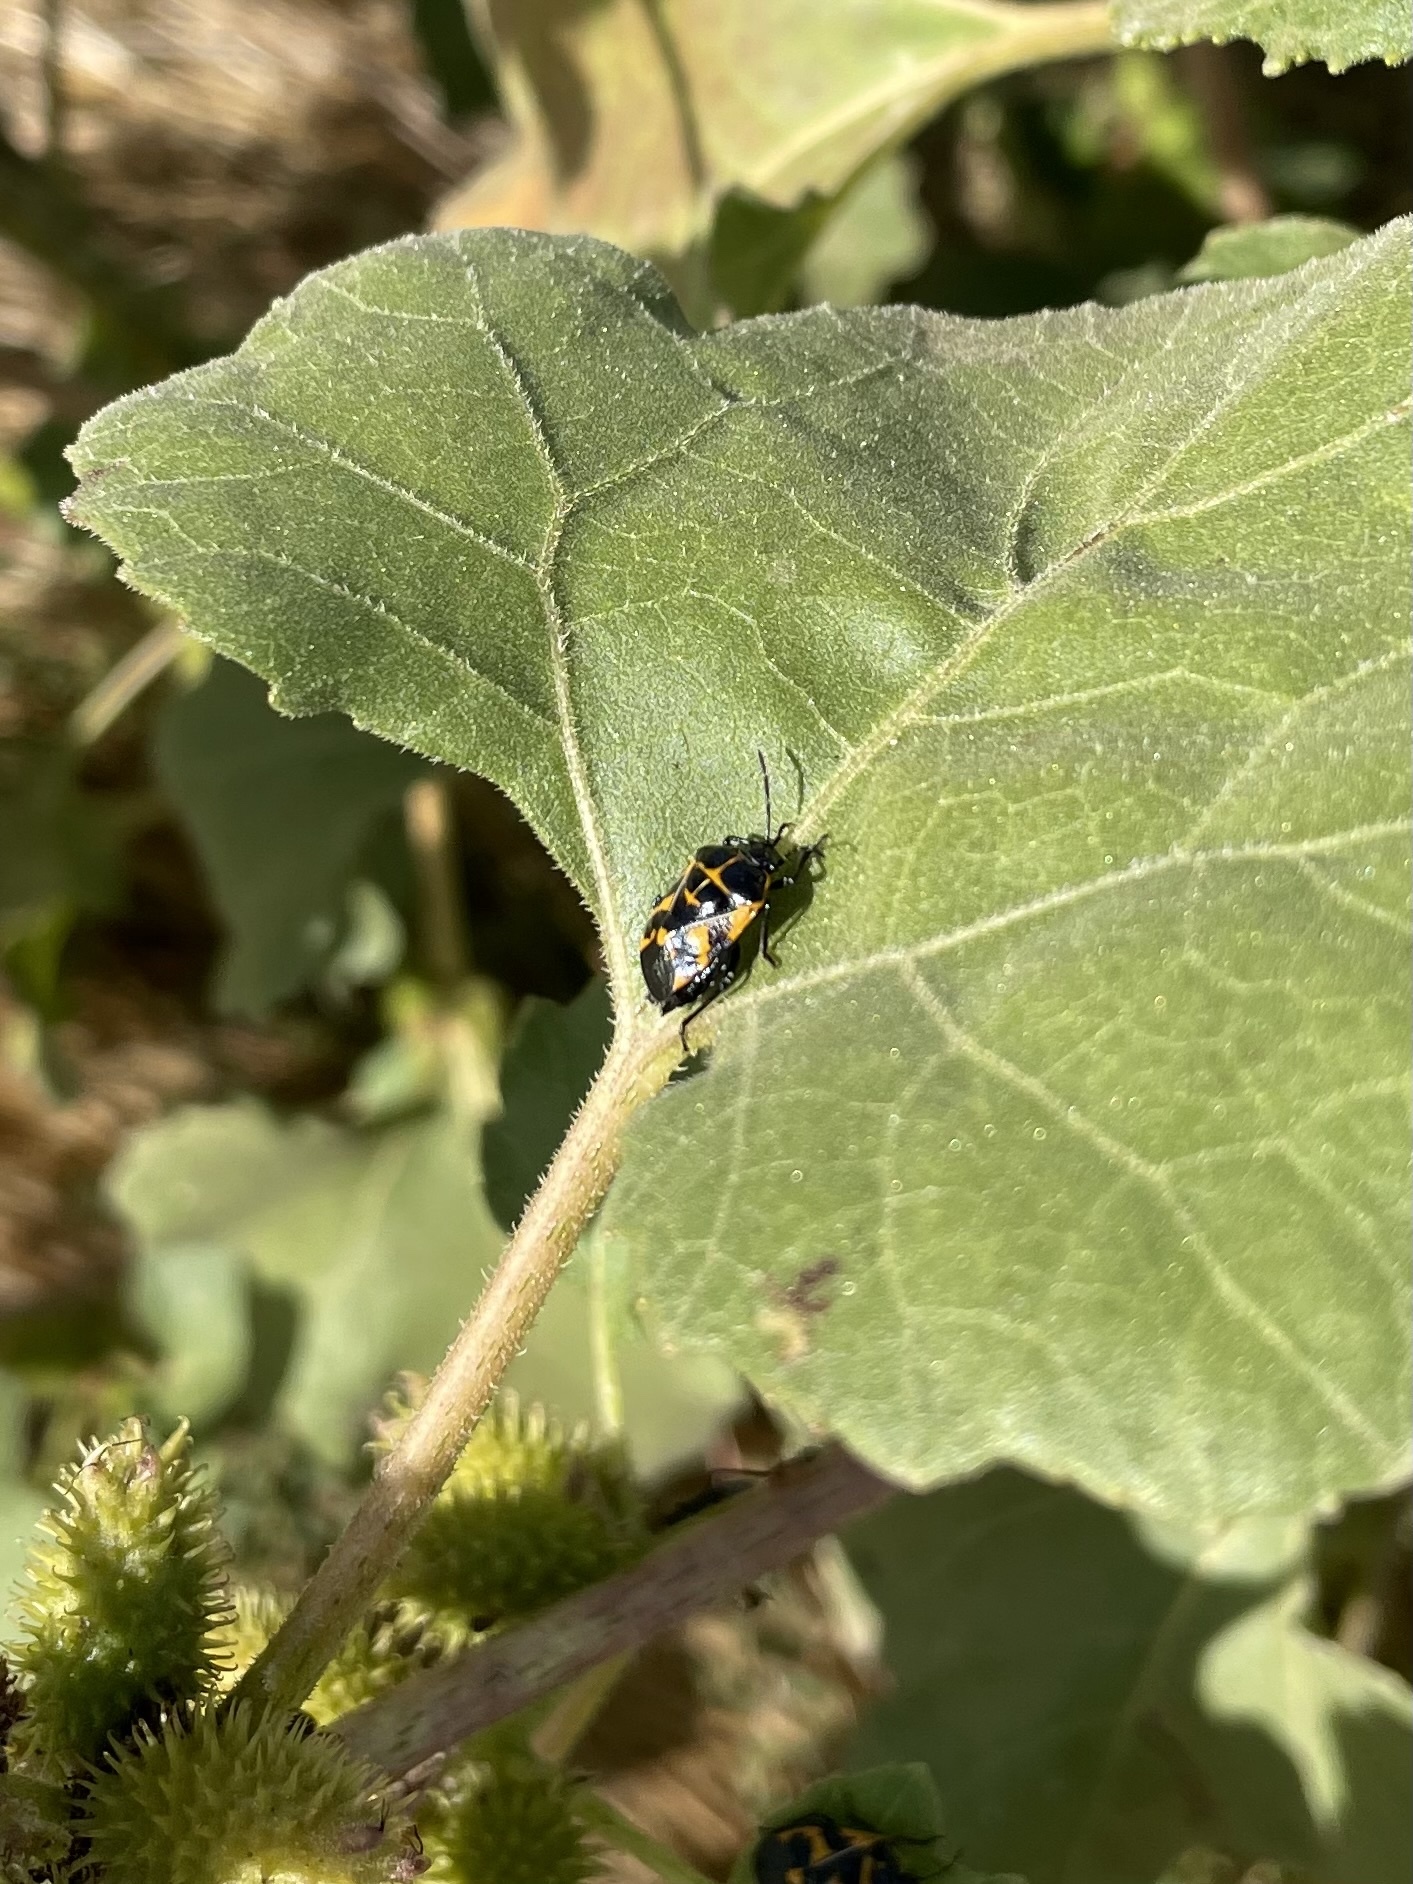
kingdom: Animalia
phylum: Arthropoda
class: Insecta
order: Hemiptera
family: Pentatomidae
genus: Murgantia
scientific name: Murgantia histrionica
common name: Harlequin bug
